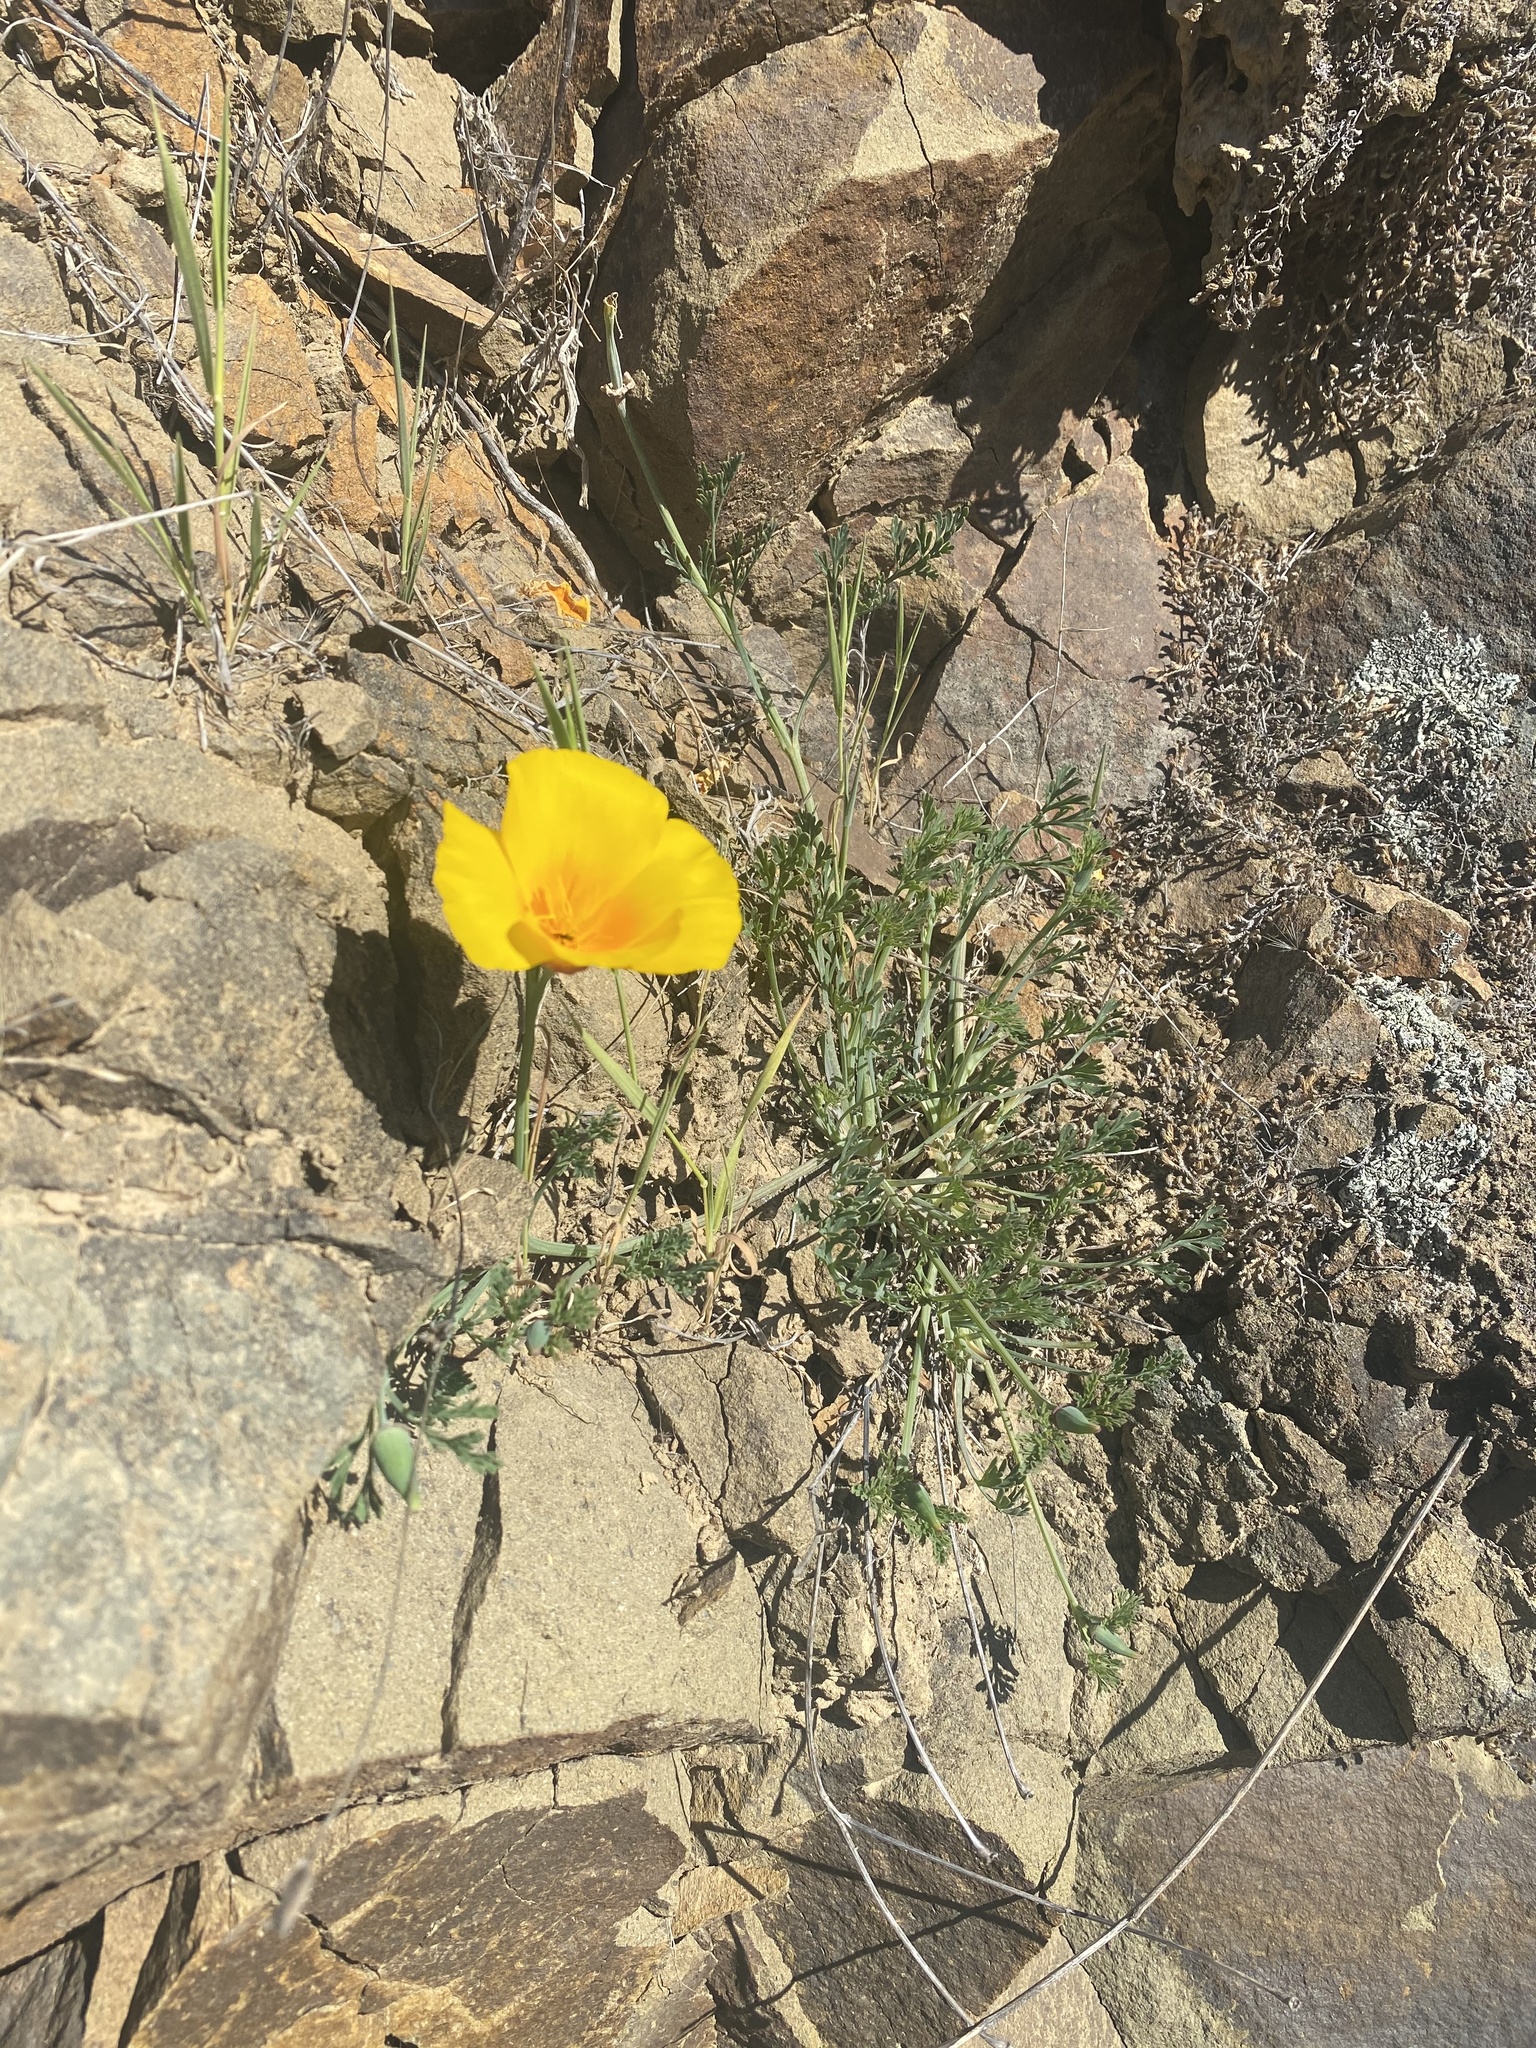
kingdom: Plantae
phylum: Tracheophyta
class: Magnoliopsida
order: Ranunculales
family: Papaveraceae
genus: Eschscholzia
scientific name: Eschscholzia californica
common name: California poppy
